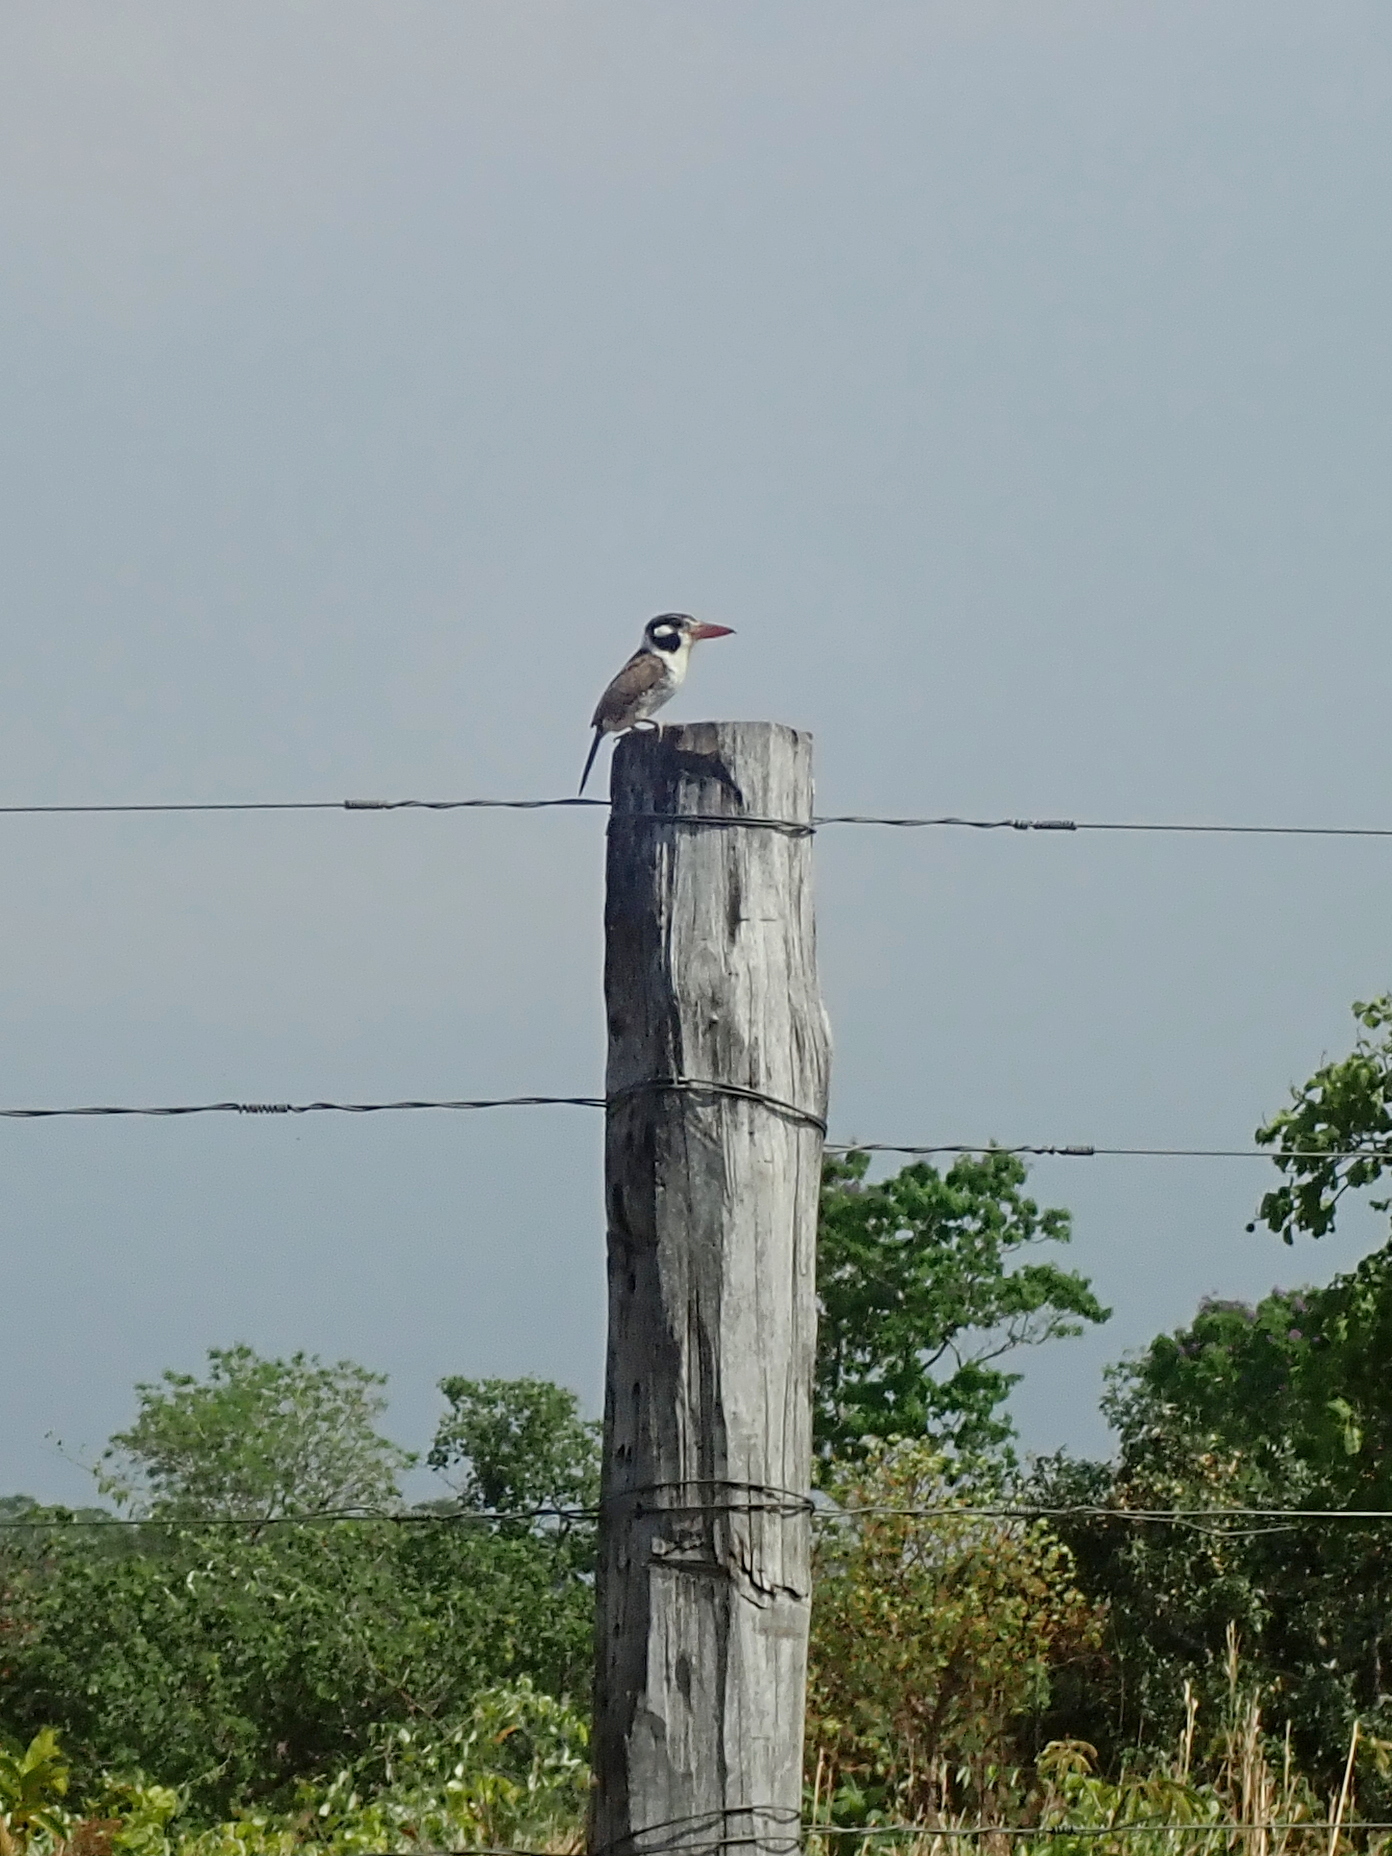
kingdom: Animalia
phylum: Chordata
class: Aves
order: Piciformes
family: Bucconidae
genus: Nystalus
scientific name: Nystalus chacuru
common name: White-eared puffbird
